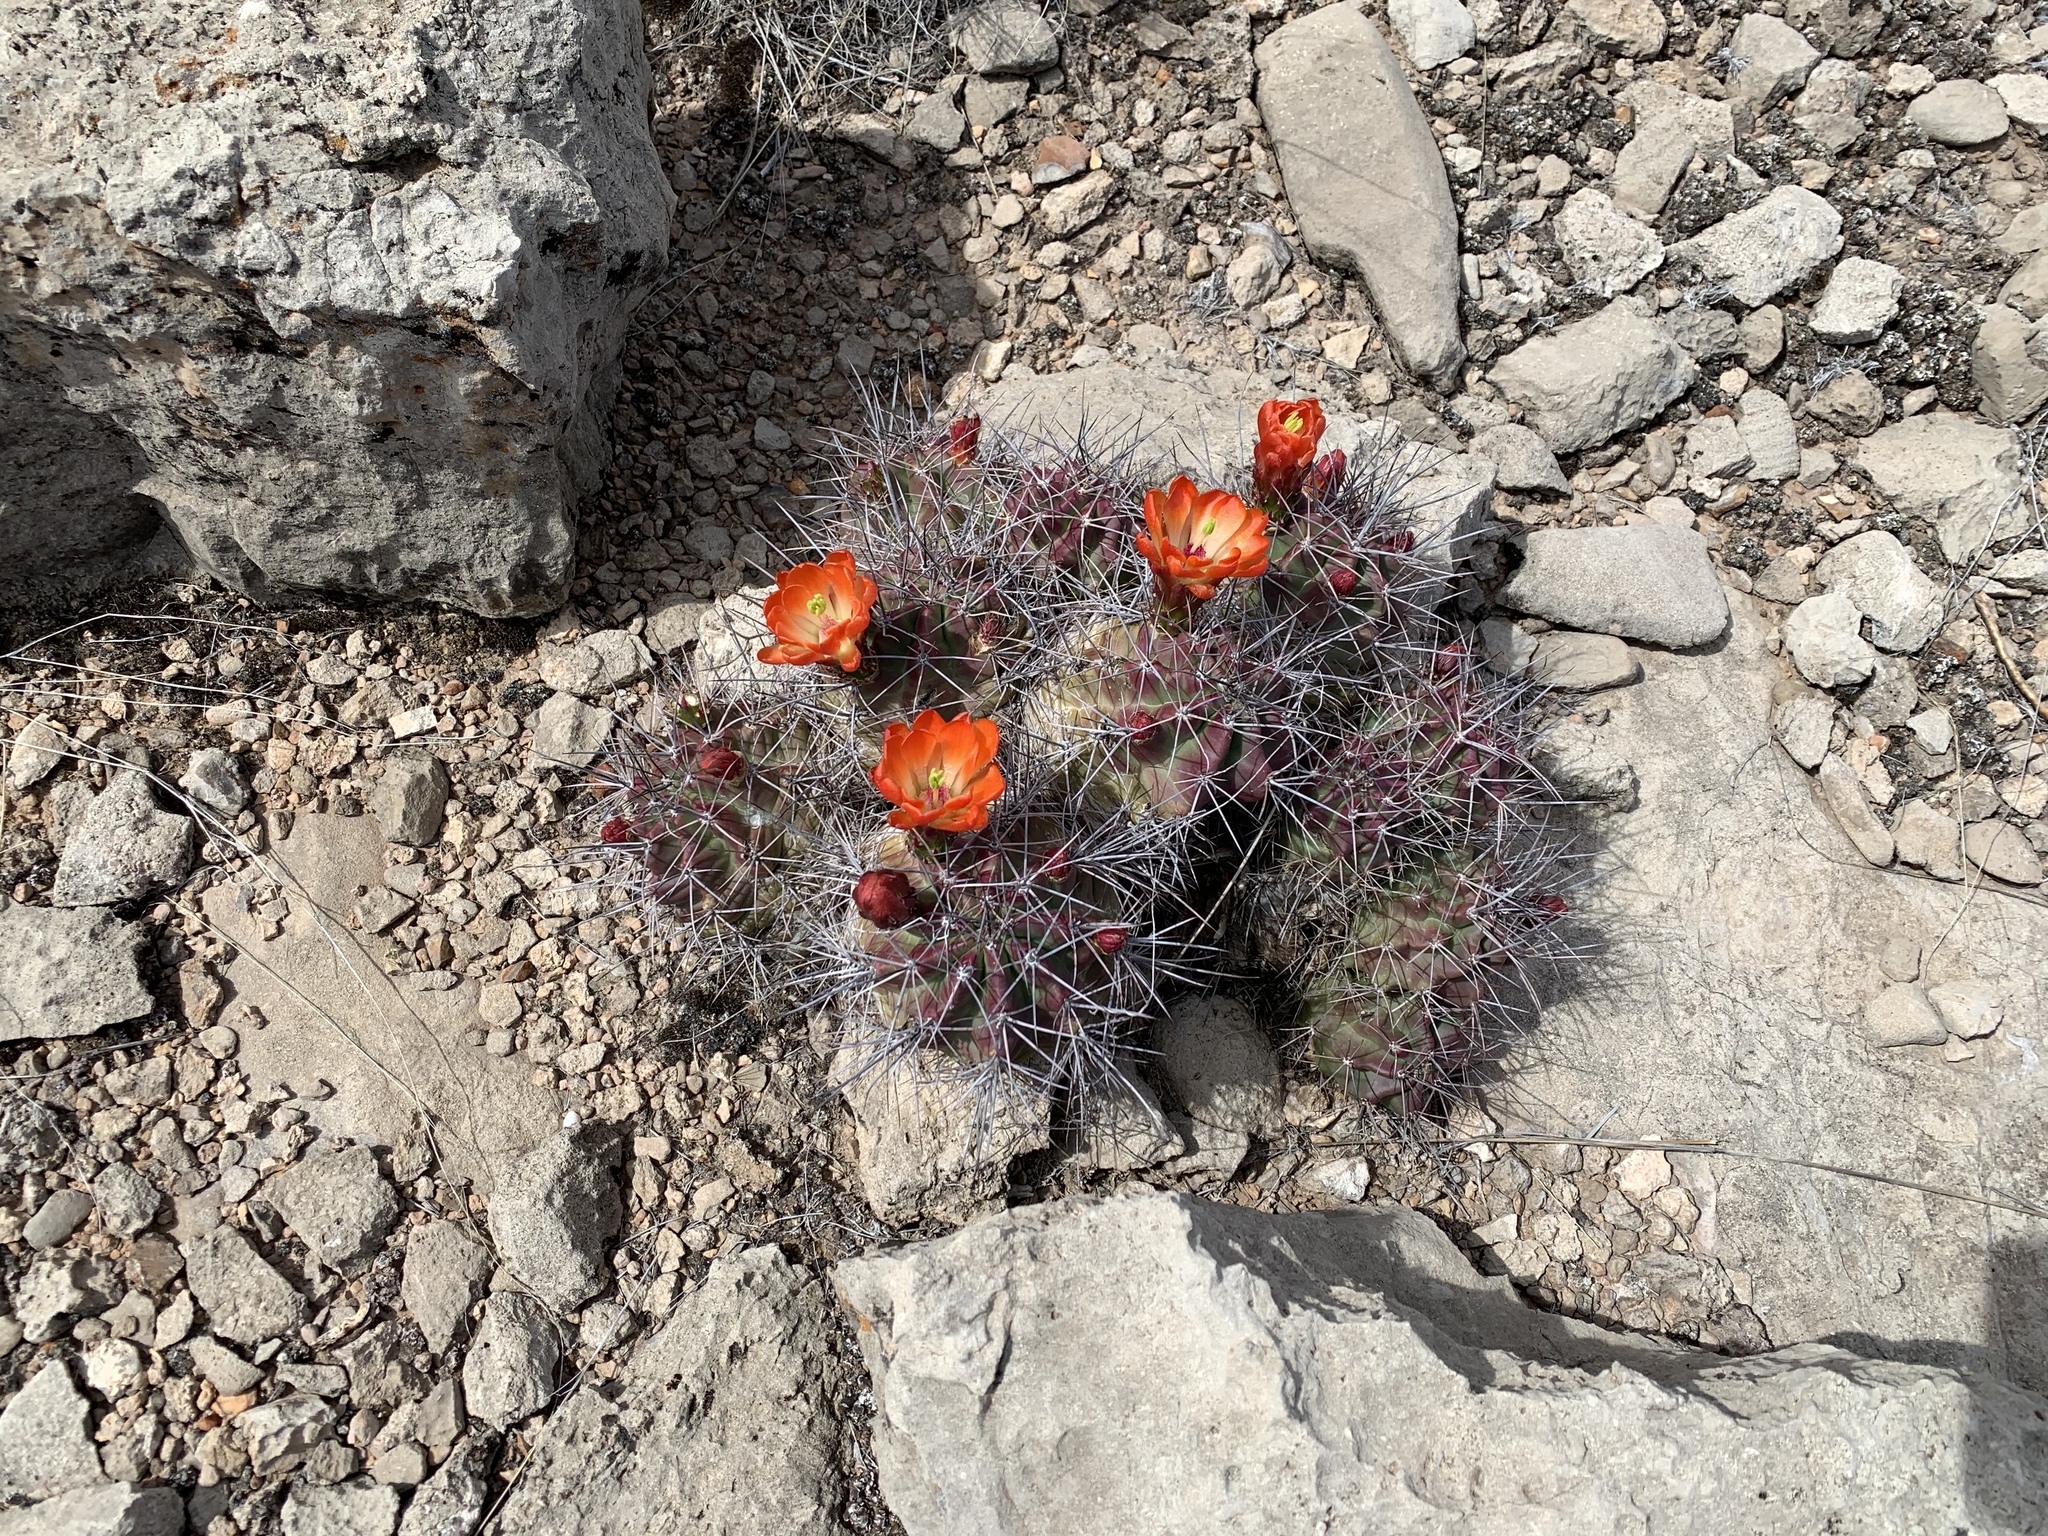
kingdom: Plantae
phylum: Tracheophyta
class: Magnoliopsida
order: Caryophyllales
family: Cactaceae
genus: Echinocereus
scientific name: Echinocereus coccineus
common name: Scarlet hedgehog cactus
